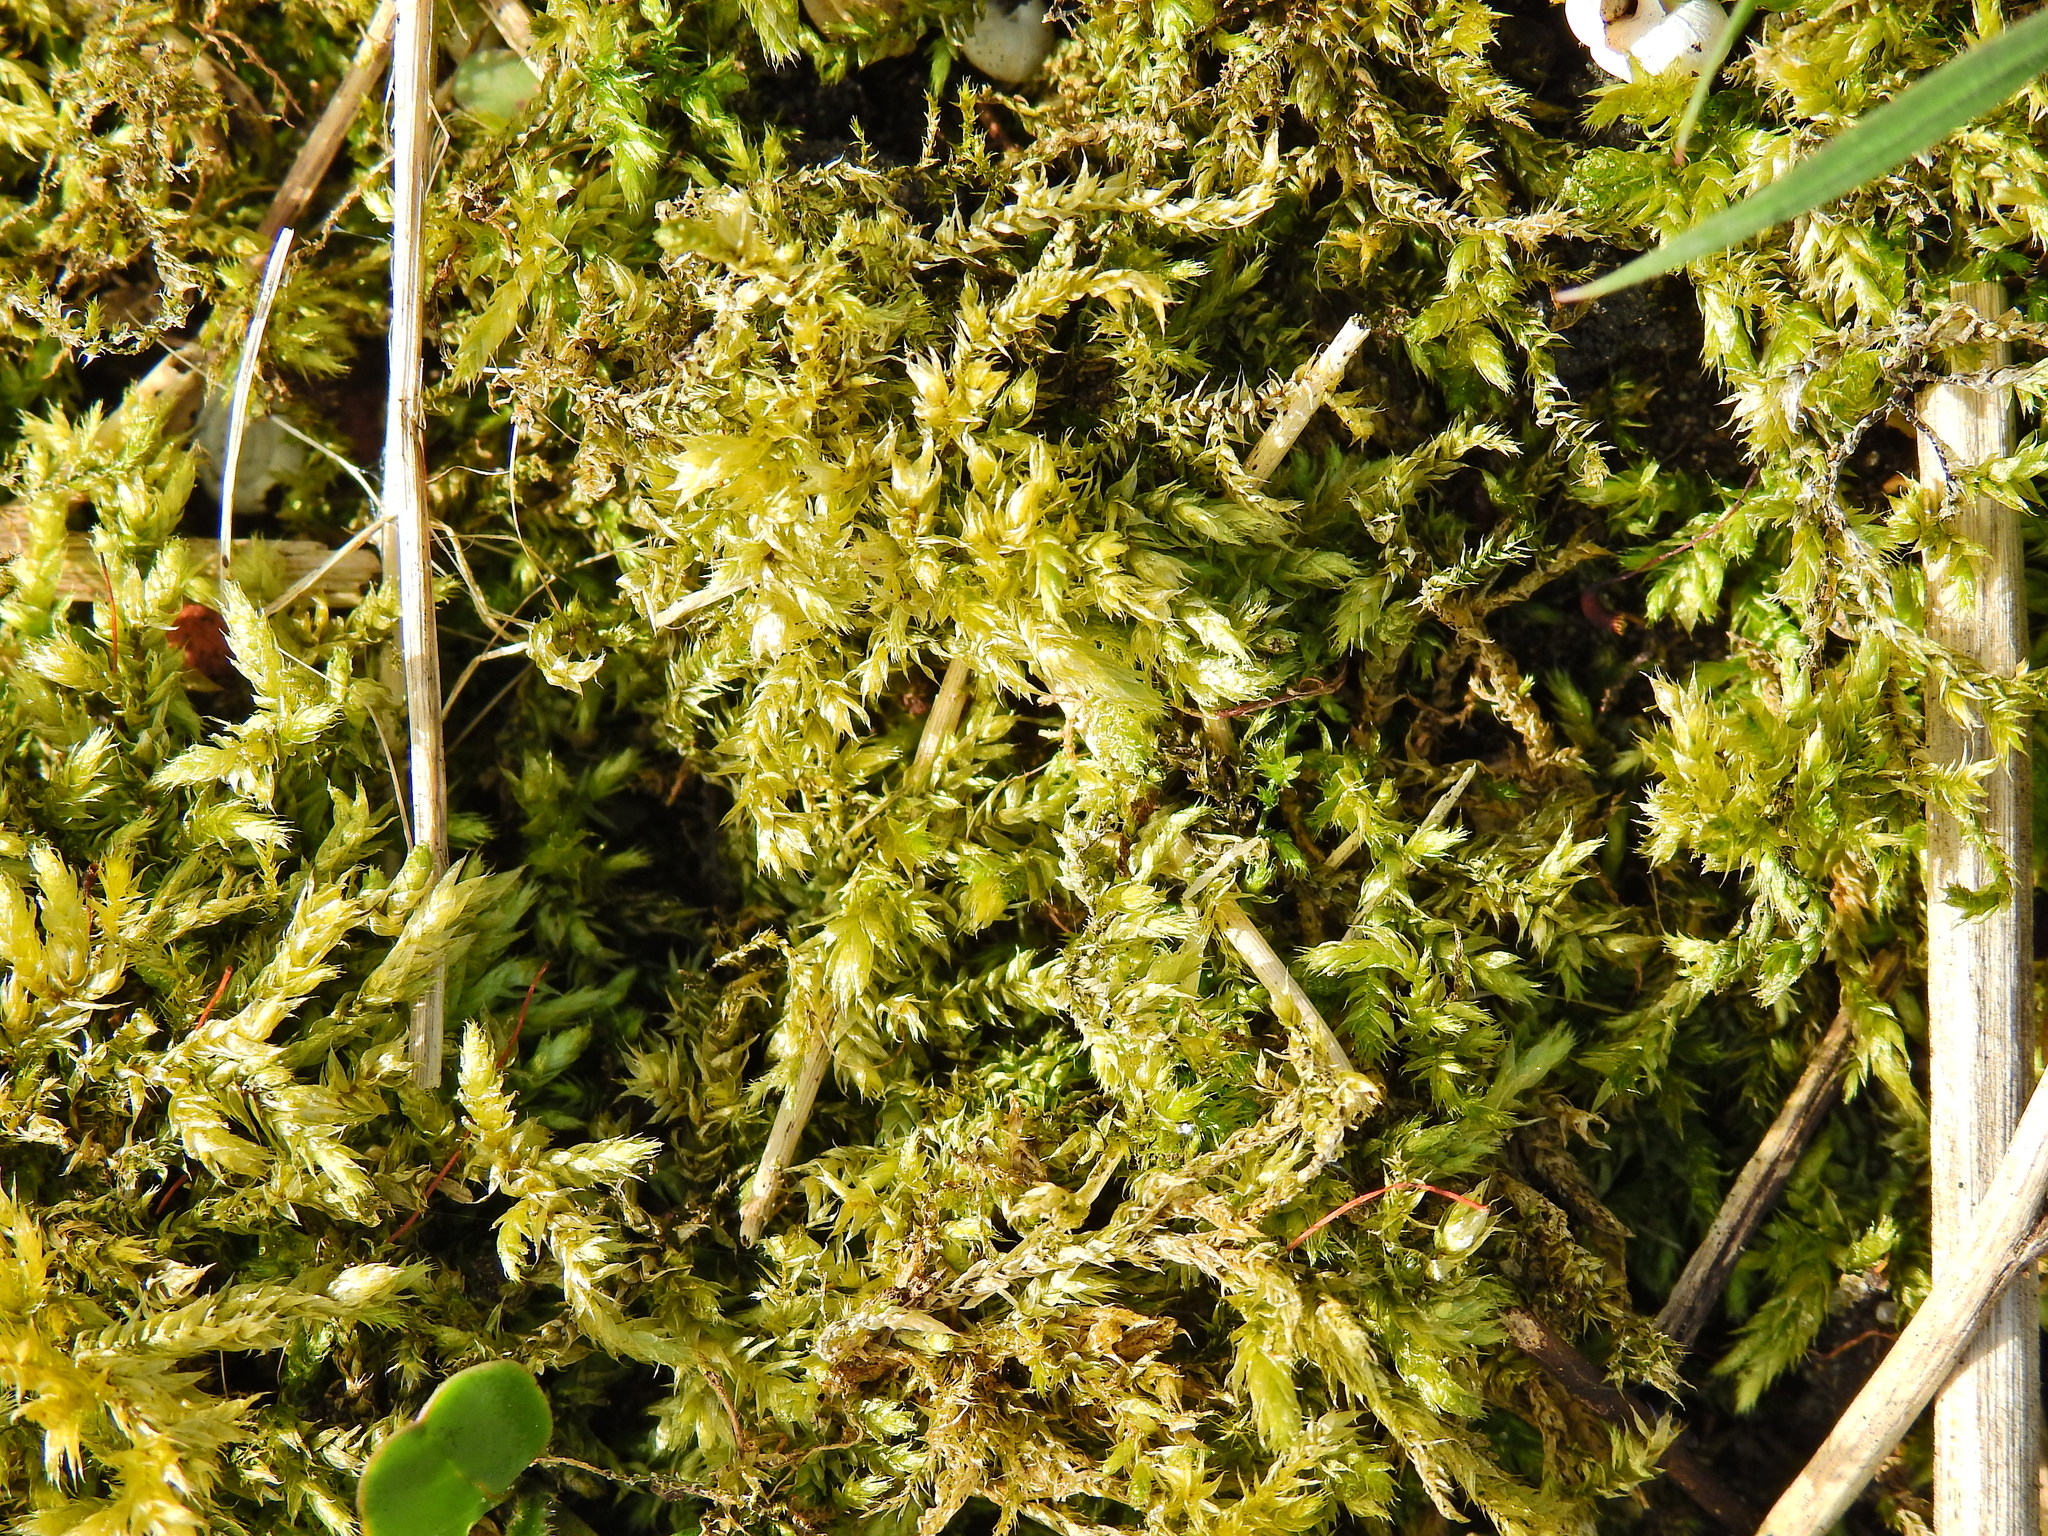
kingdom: Plantae
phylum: Bryophyta
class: Bryopsida
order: Hypnales
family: Brachytheciaceae
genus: Brachythecium
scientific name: Brachythecium rutabulum
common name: Rough-stalked feather-moss
